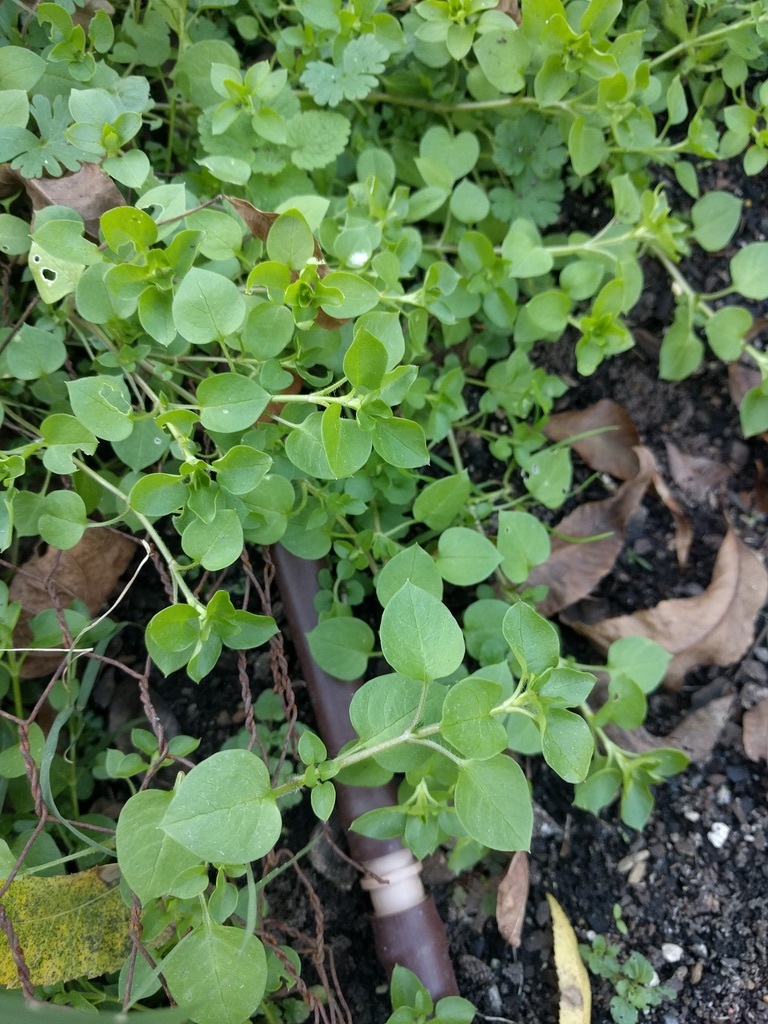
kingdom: Plantae
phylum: Tracheophyta
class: Magnoliopsida
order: Caryophyllales
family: Caryophyllaceae
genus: Stellaria
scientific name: Stellaria media
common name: Common chickweed
